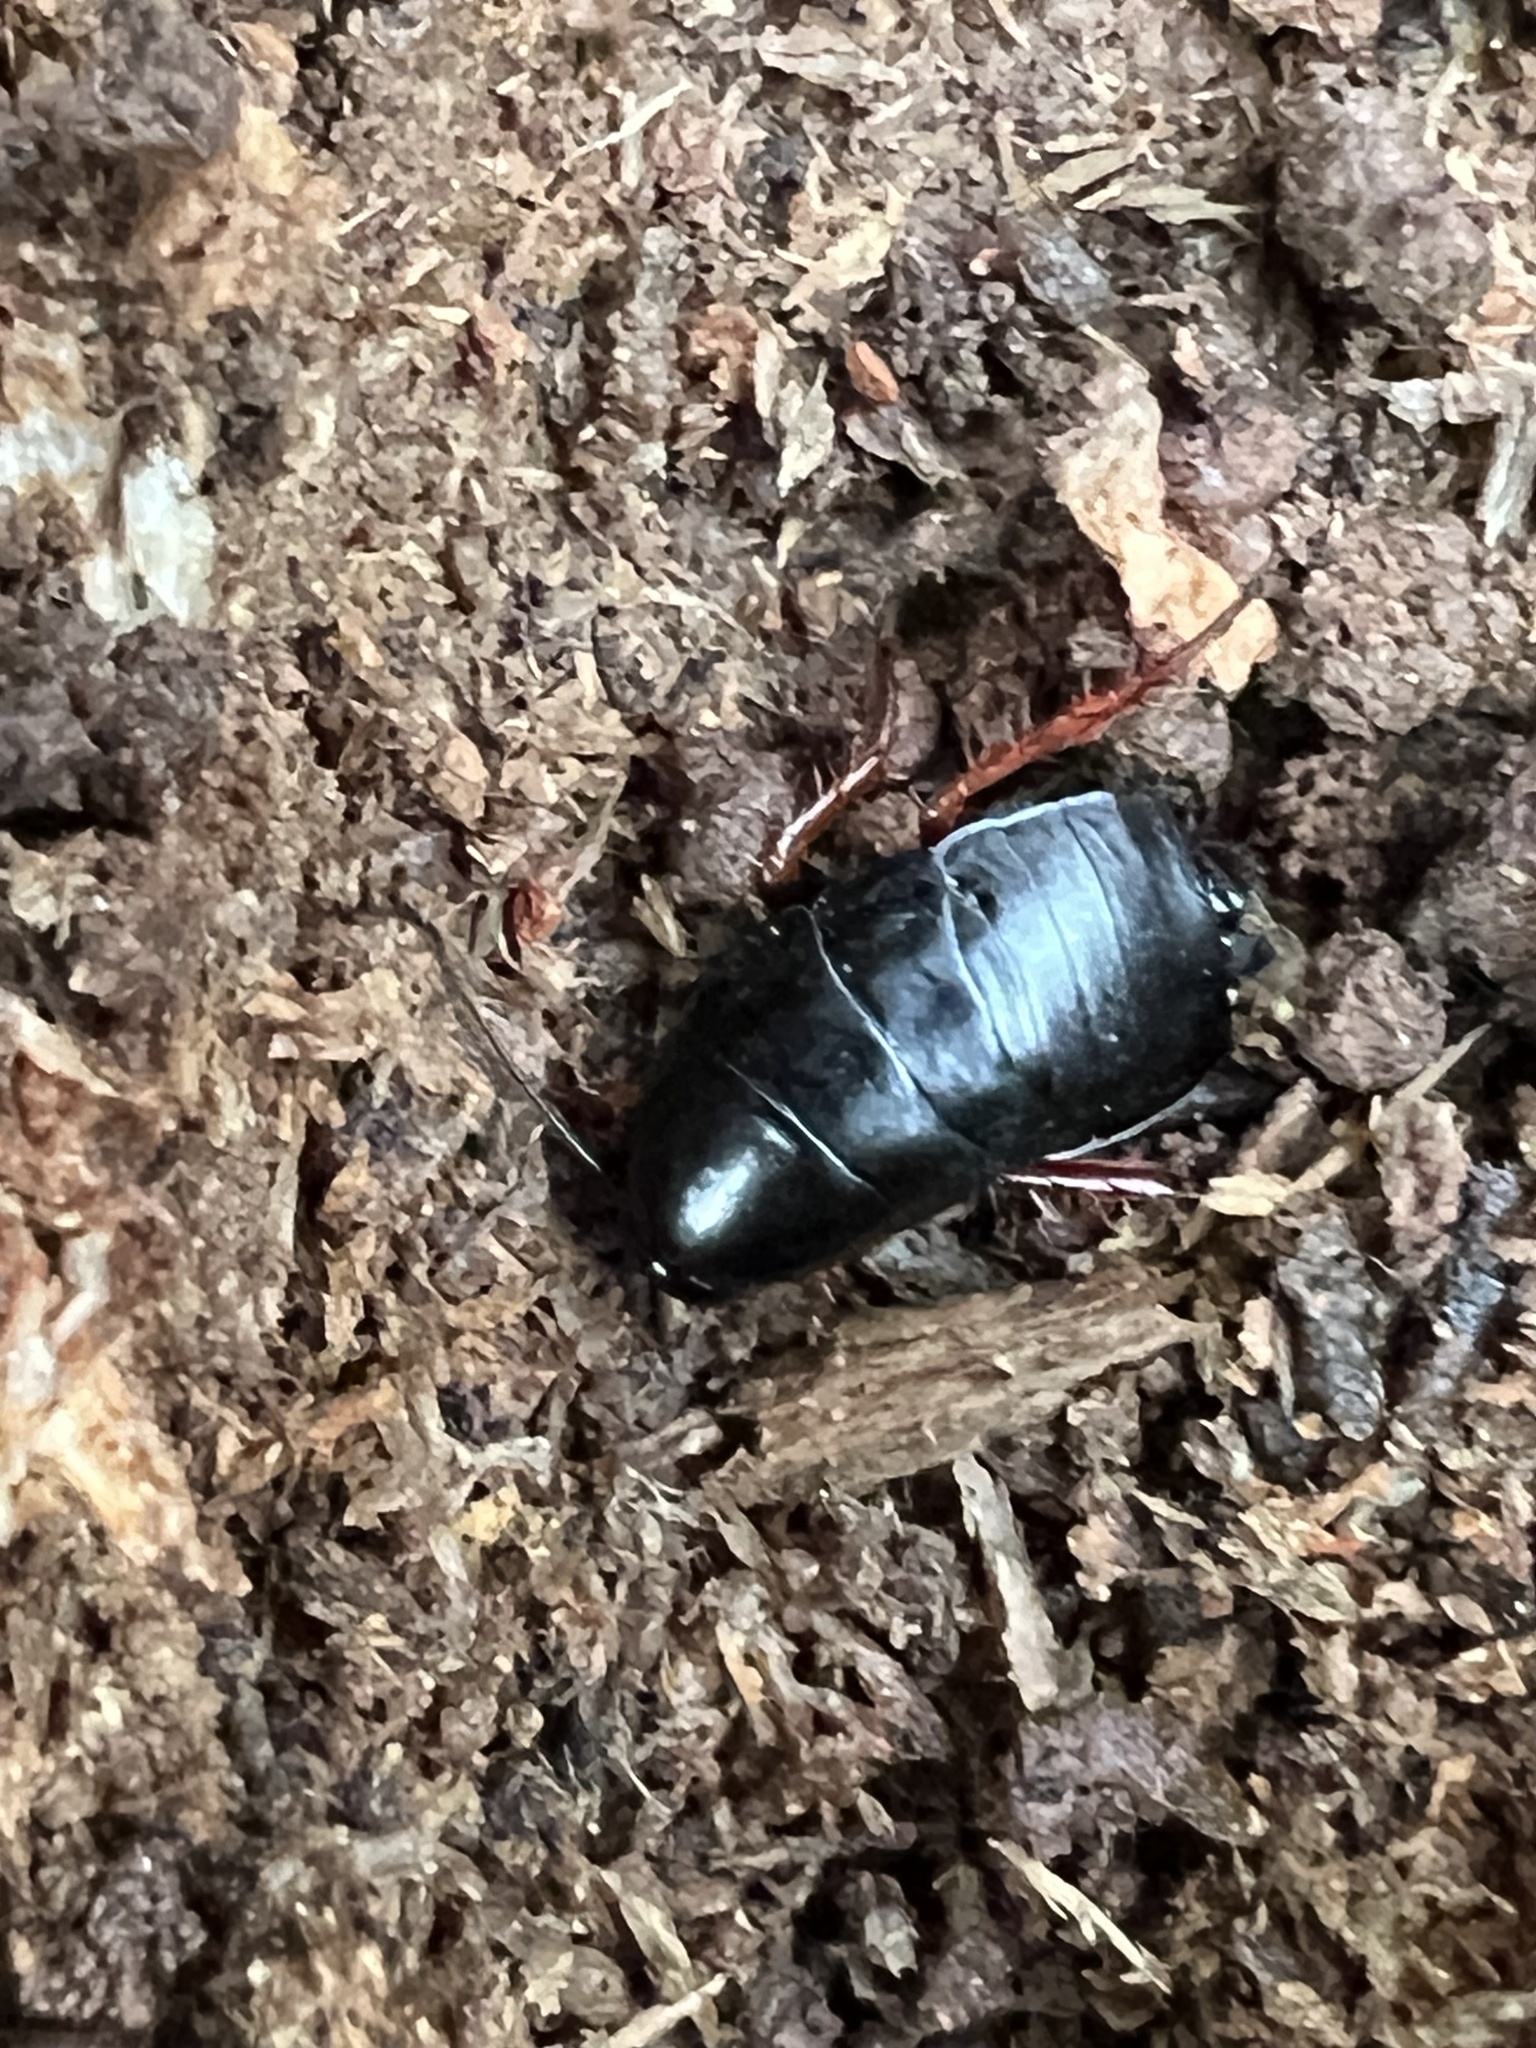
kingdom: Animalia
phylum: Arthropoda
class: Insecta
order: Blattodea
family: Ectobiidae
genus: Ischnoptera
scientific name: Ischnoptera deropeltiformis
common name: Dark wood cockroach
